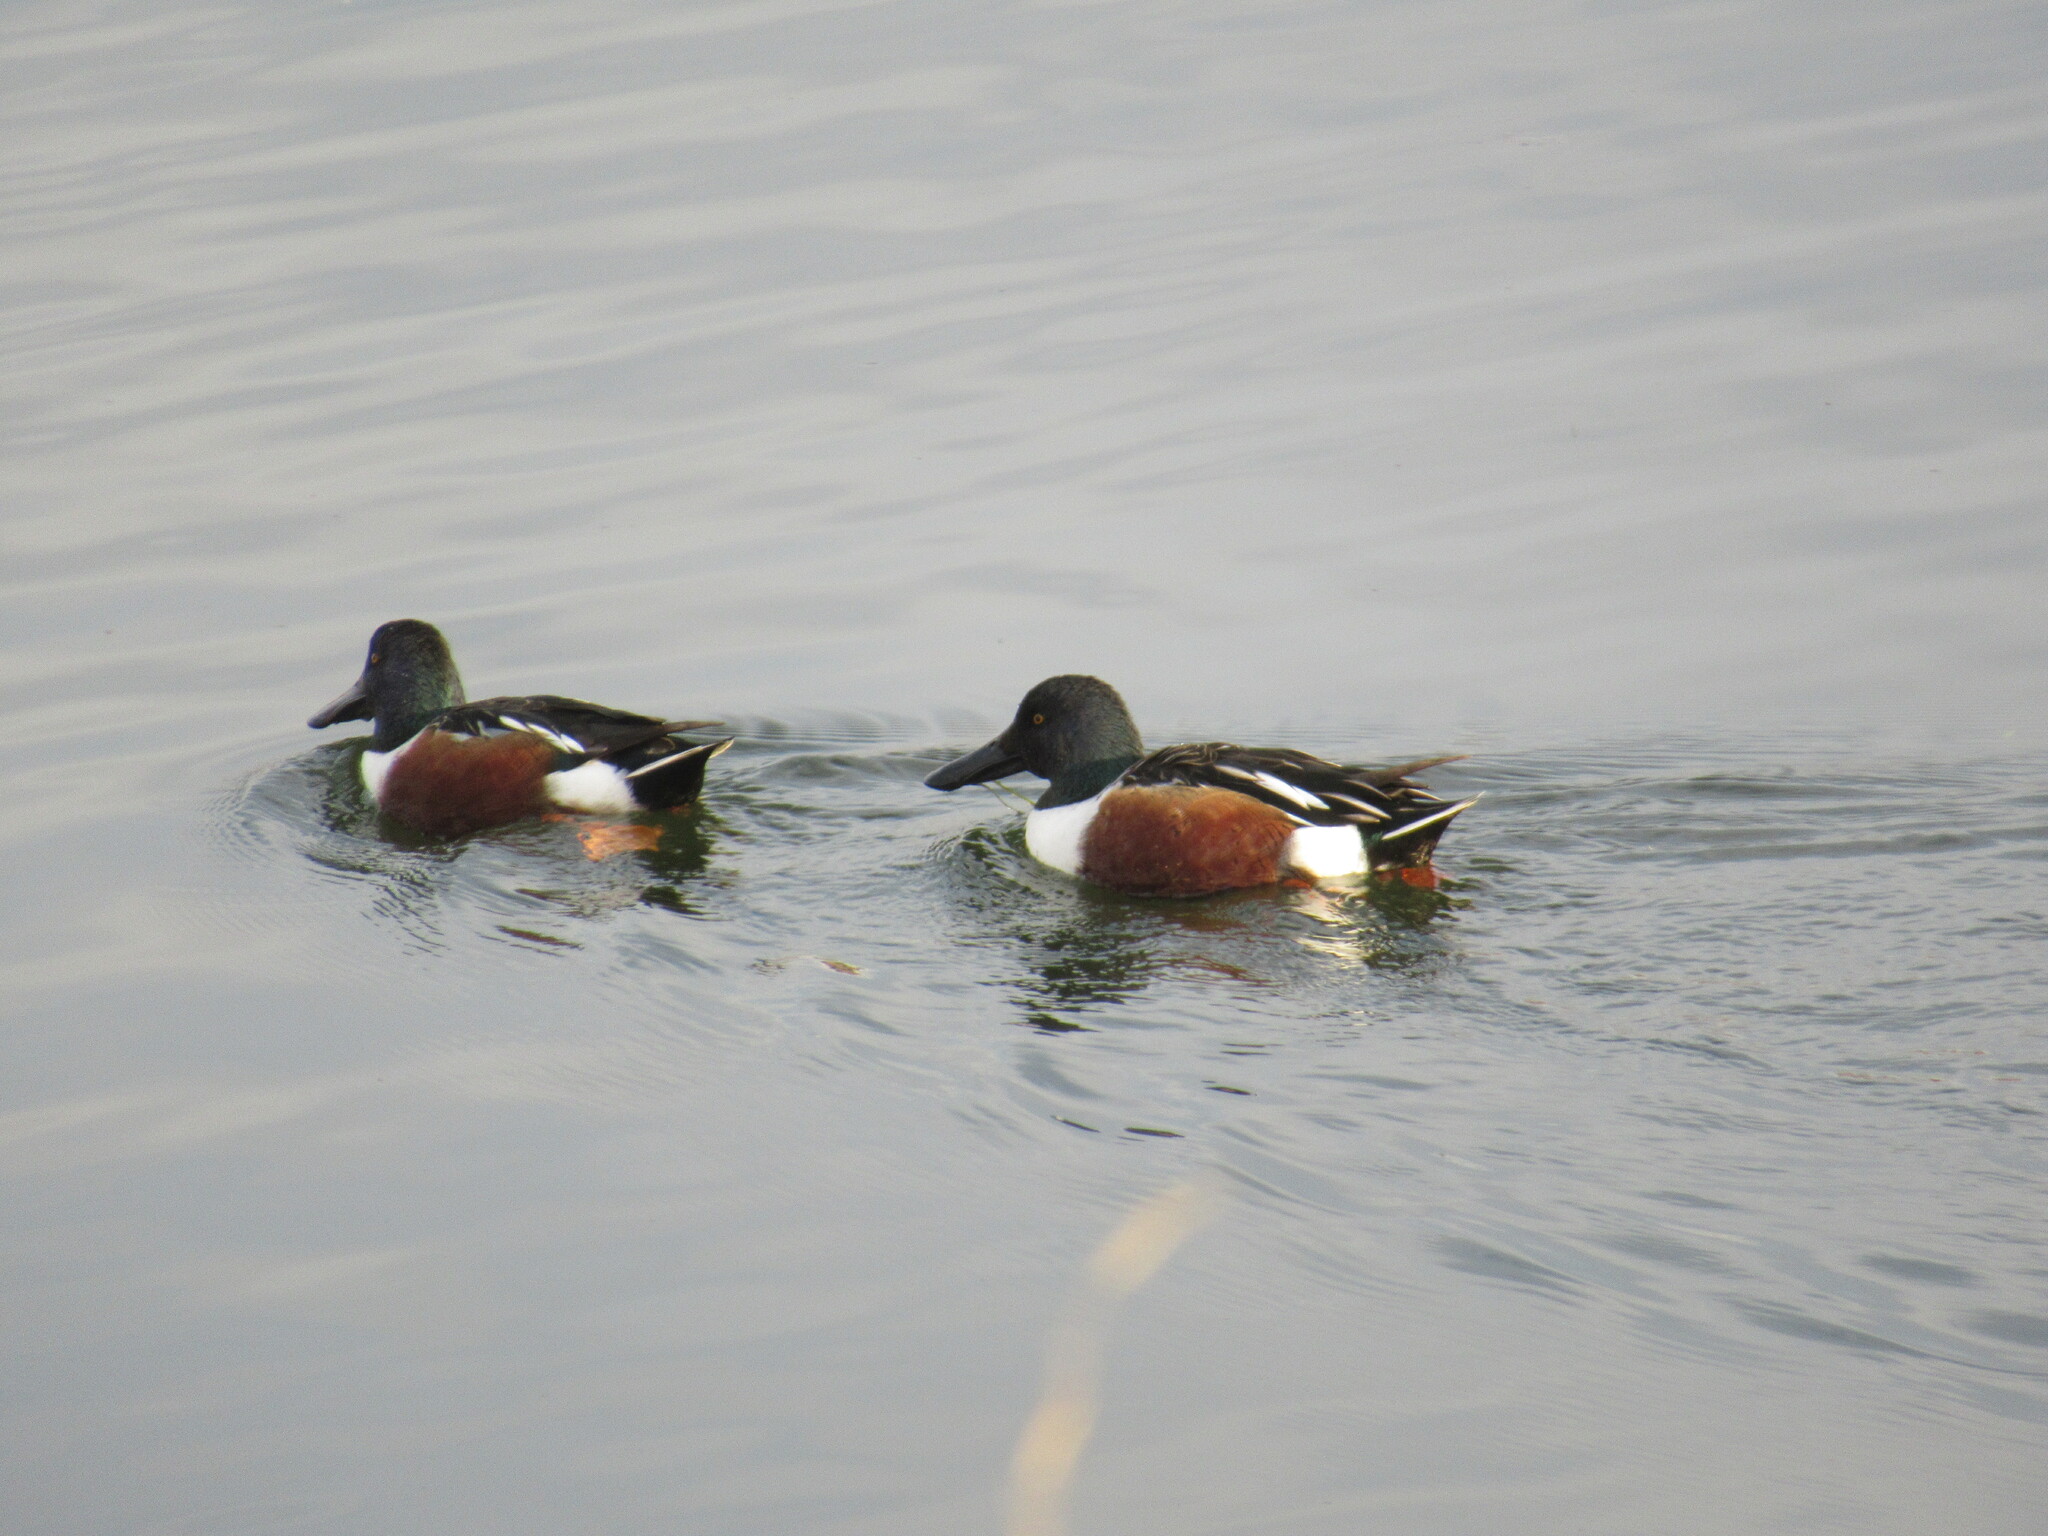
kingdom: Animalia
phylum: Chordata
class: Aves
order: Anseriformes
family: Anatidae
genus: Spatula
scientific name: Spatula clypeata
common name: Northern shoveler
